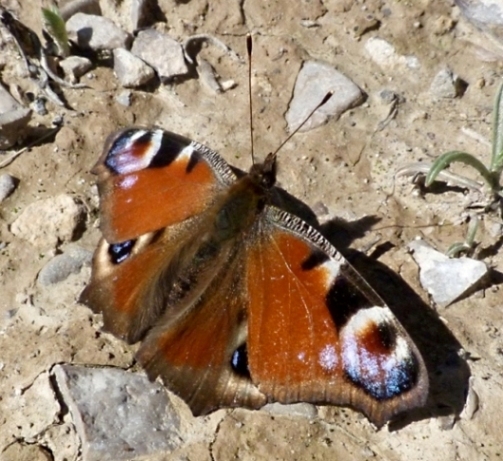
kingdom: Animalia
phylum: Arthropoda
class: Insecta
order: Lepidoptera
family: Nymphalidae
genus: Aglais
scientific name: Aglais io
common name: Peacock
